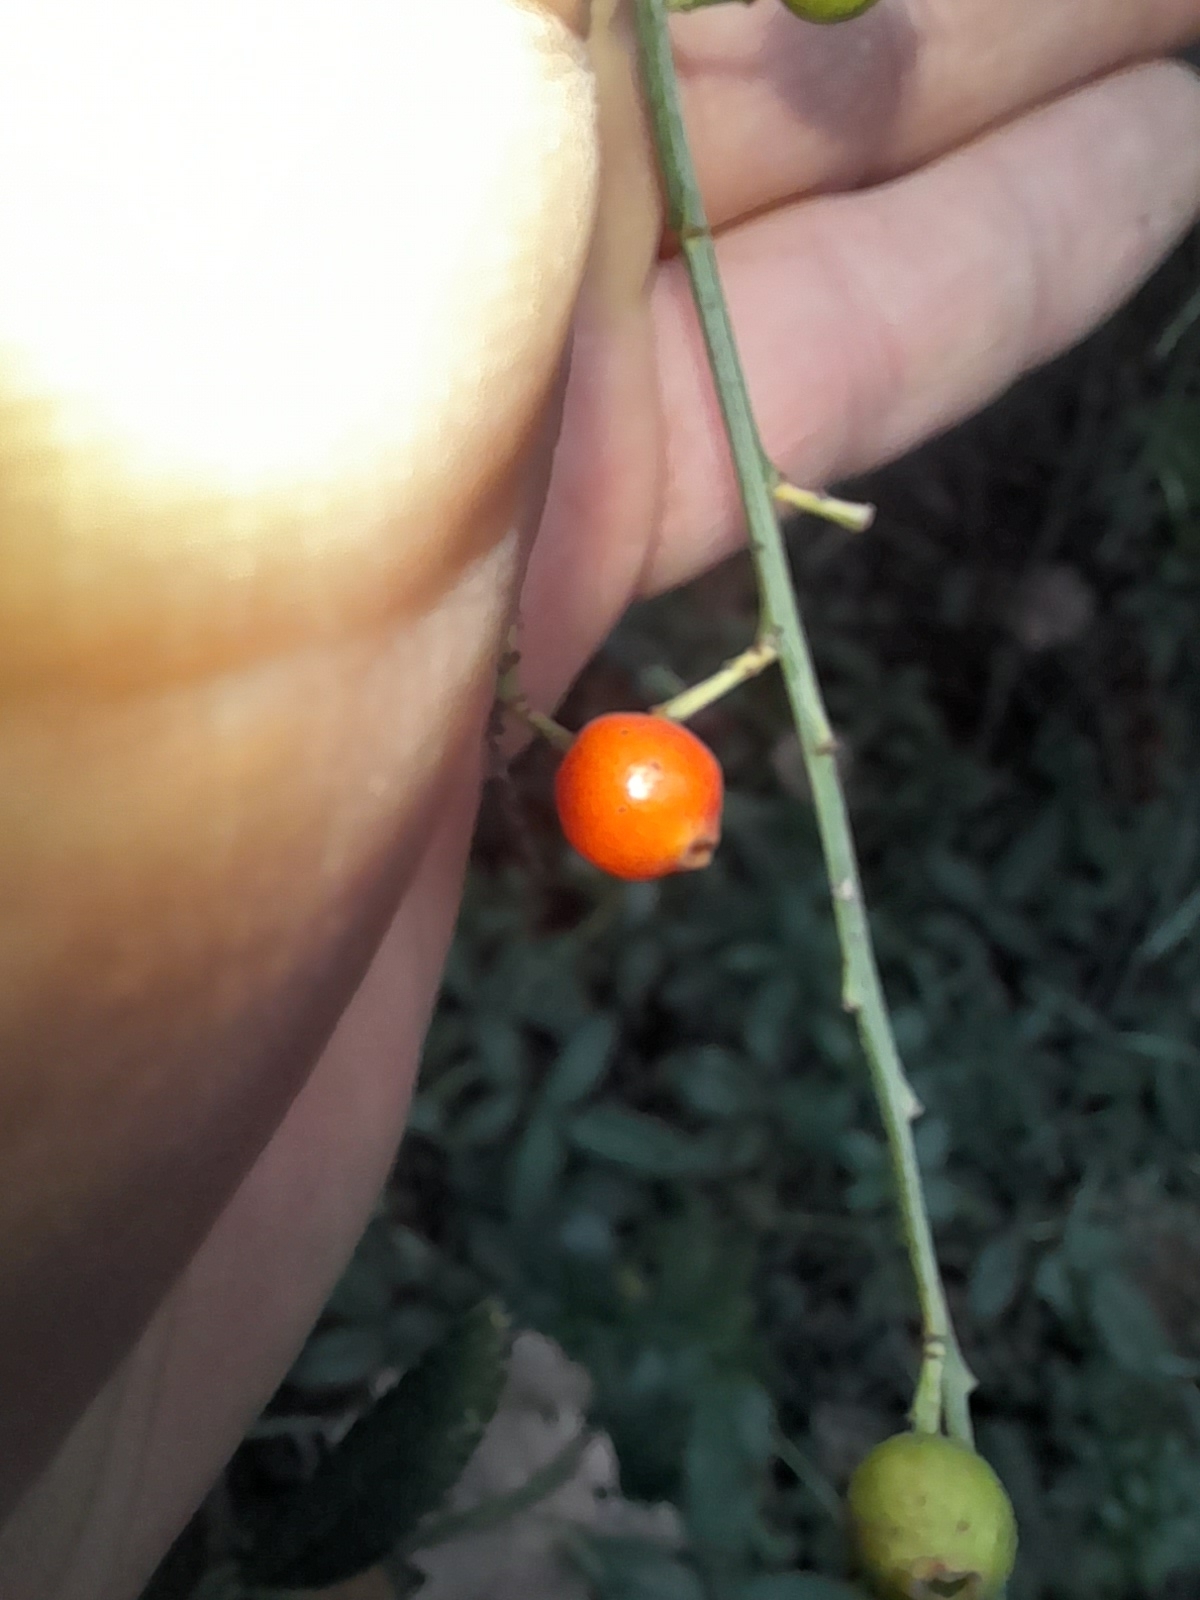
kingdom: Plantae
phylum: Tracheophyta
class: Magnoliopsida
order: Santalales
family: Santalaceae
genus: Osyris
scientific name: Osyris alba
